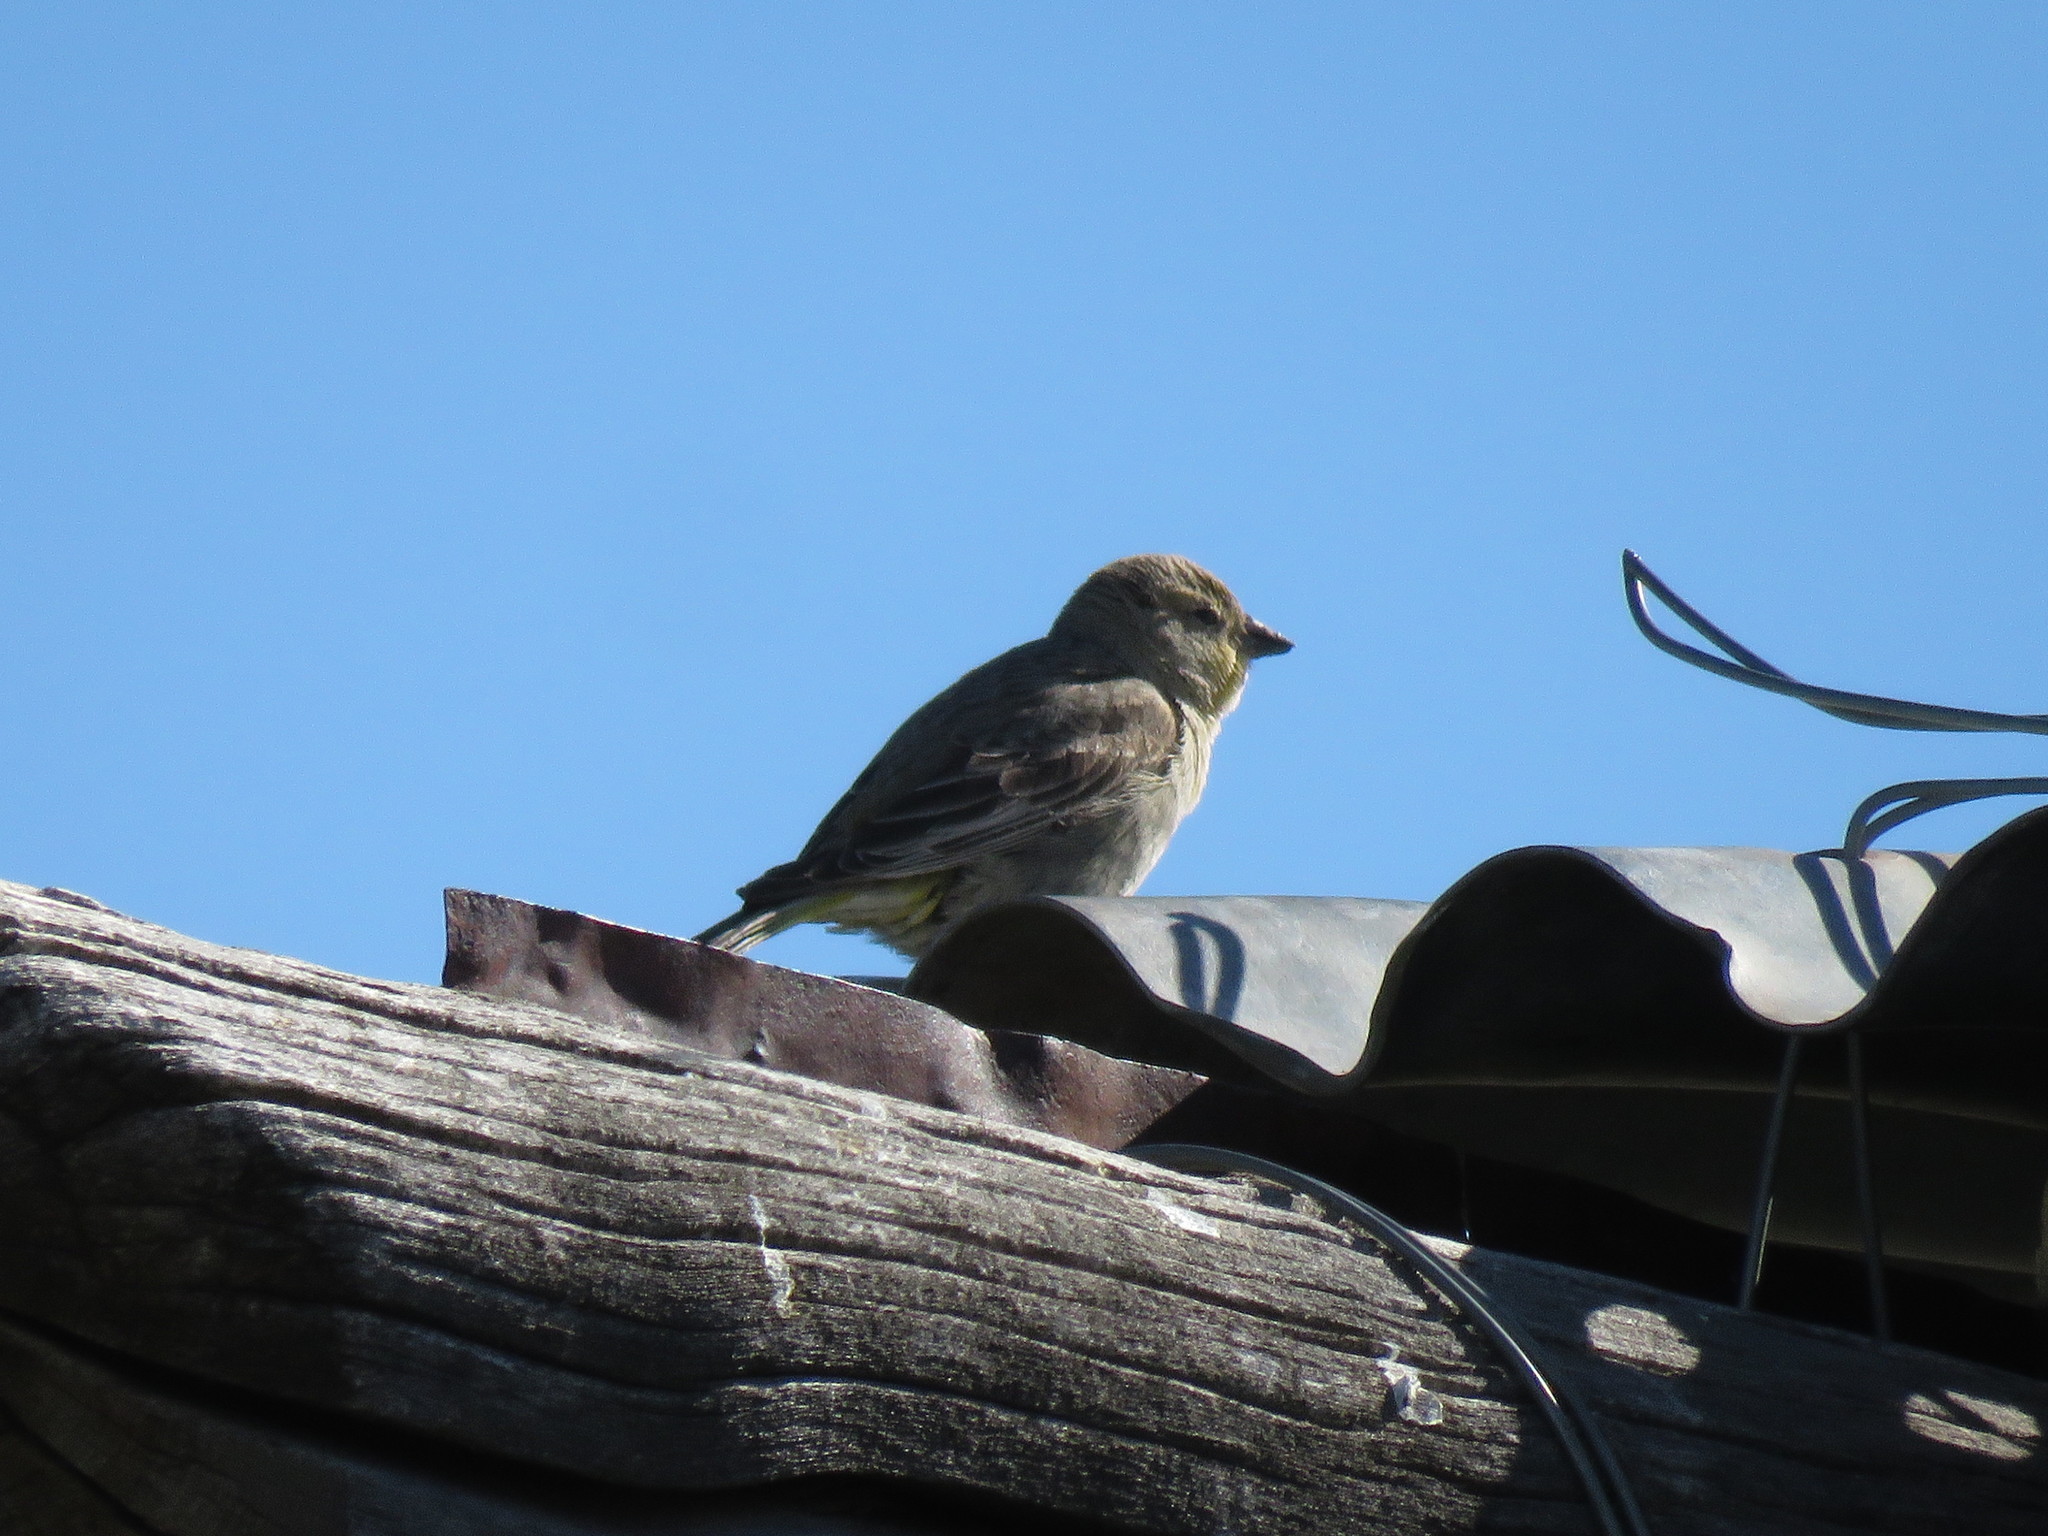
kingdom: Animalia
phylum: Chordata
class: Aves
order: Passeriformes
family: Fringillidae
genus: Spinus
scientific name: Spinus barbatus
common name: Black-chinned siskin
